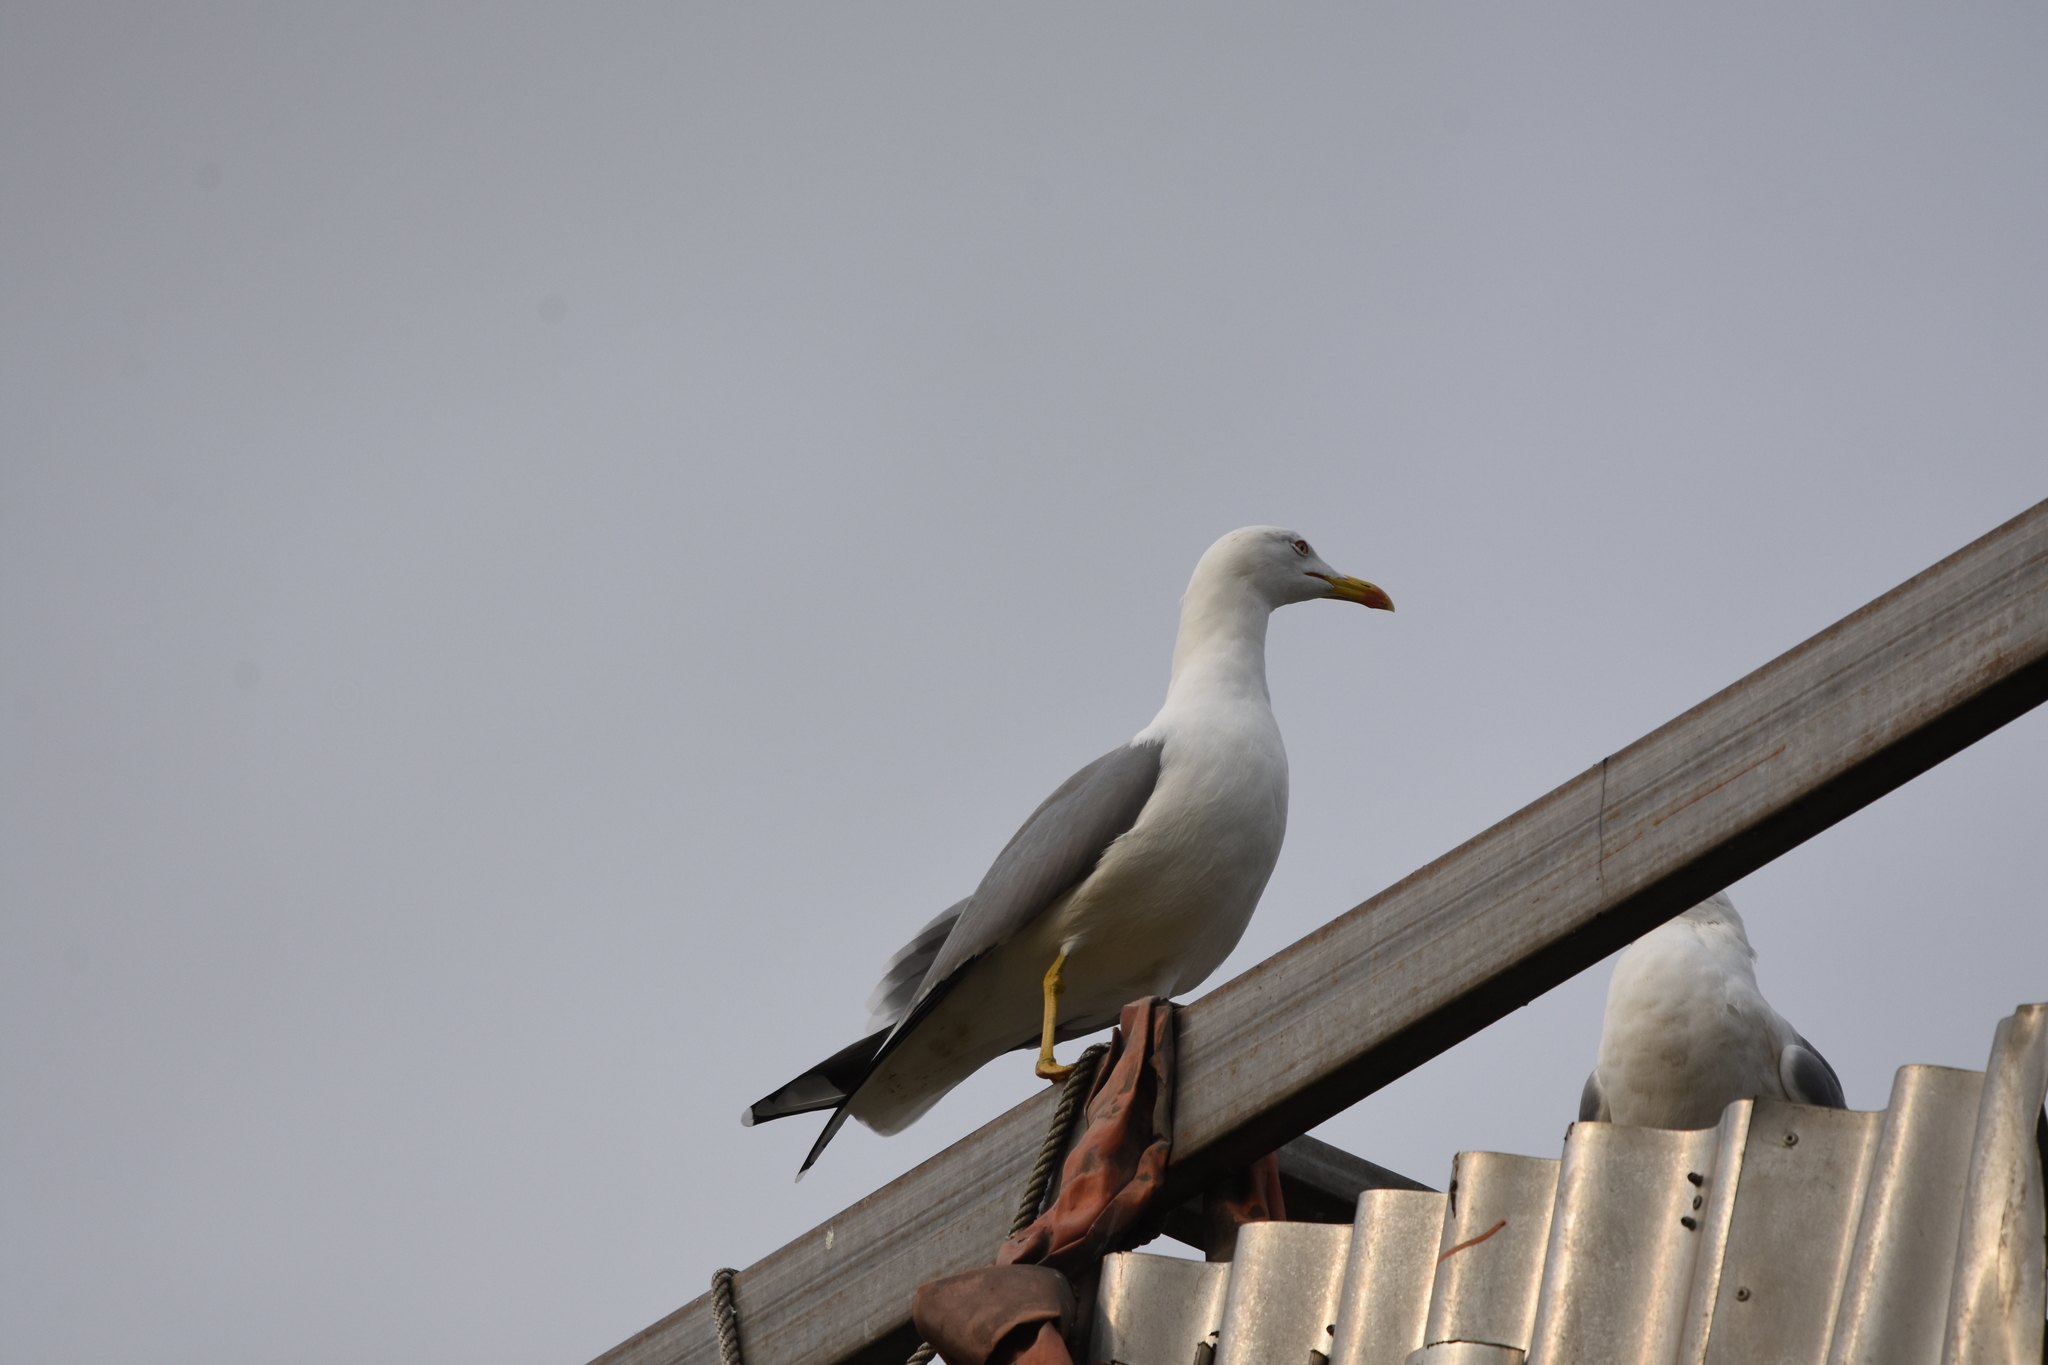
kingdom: Animalia
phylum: Chordata
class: Aves
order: Charadriiformes
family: Laridae
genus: Larus
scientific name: Larus michahellis
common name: Yellow-legged gull
